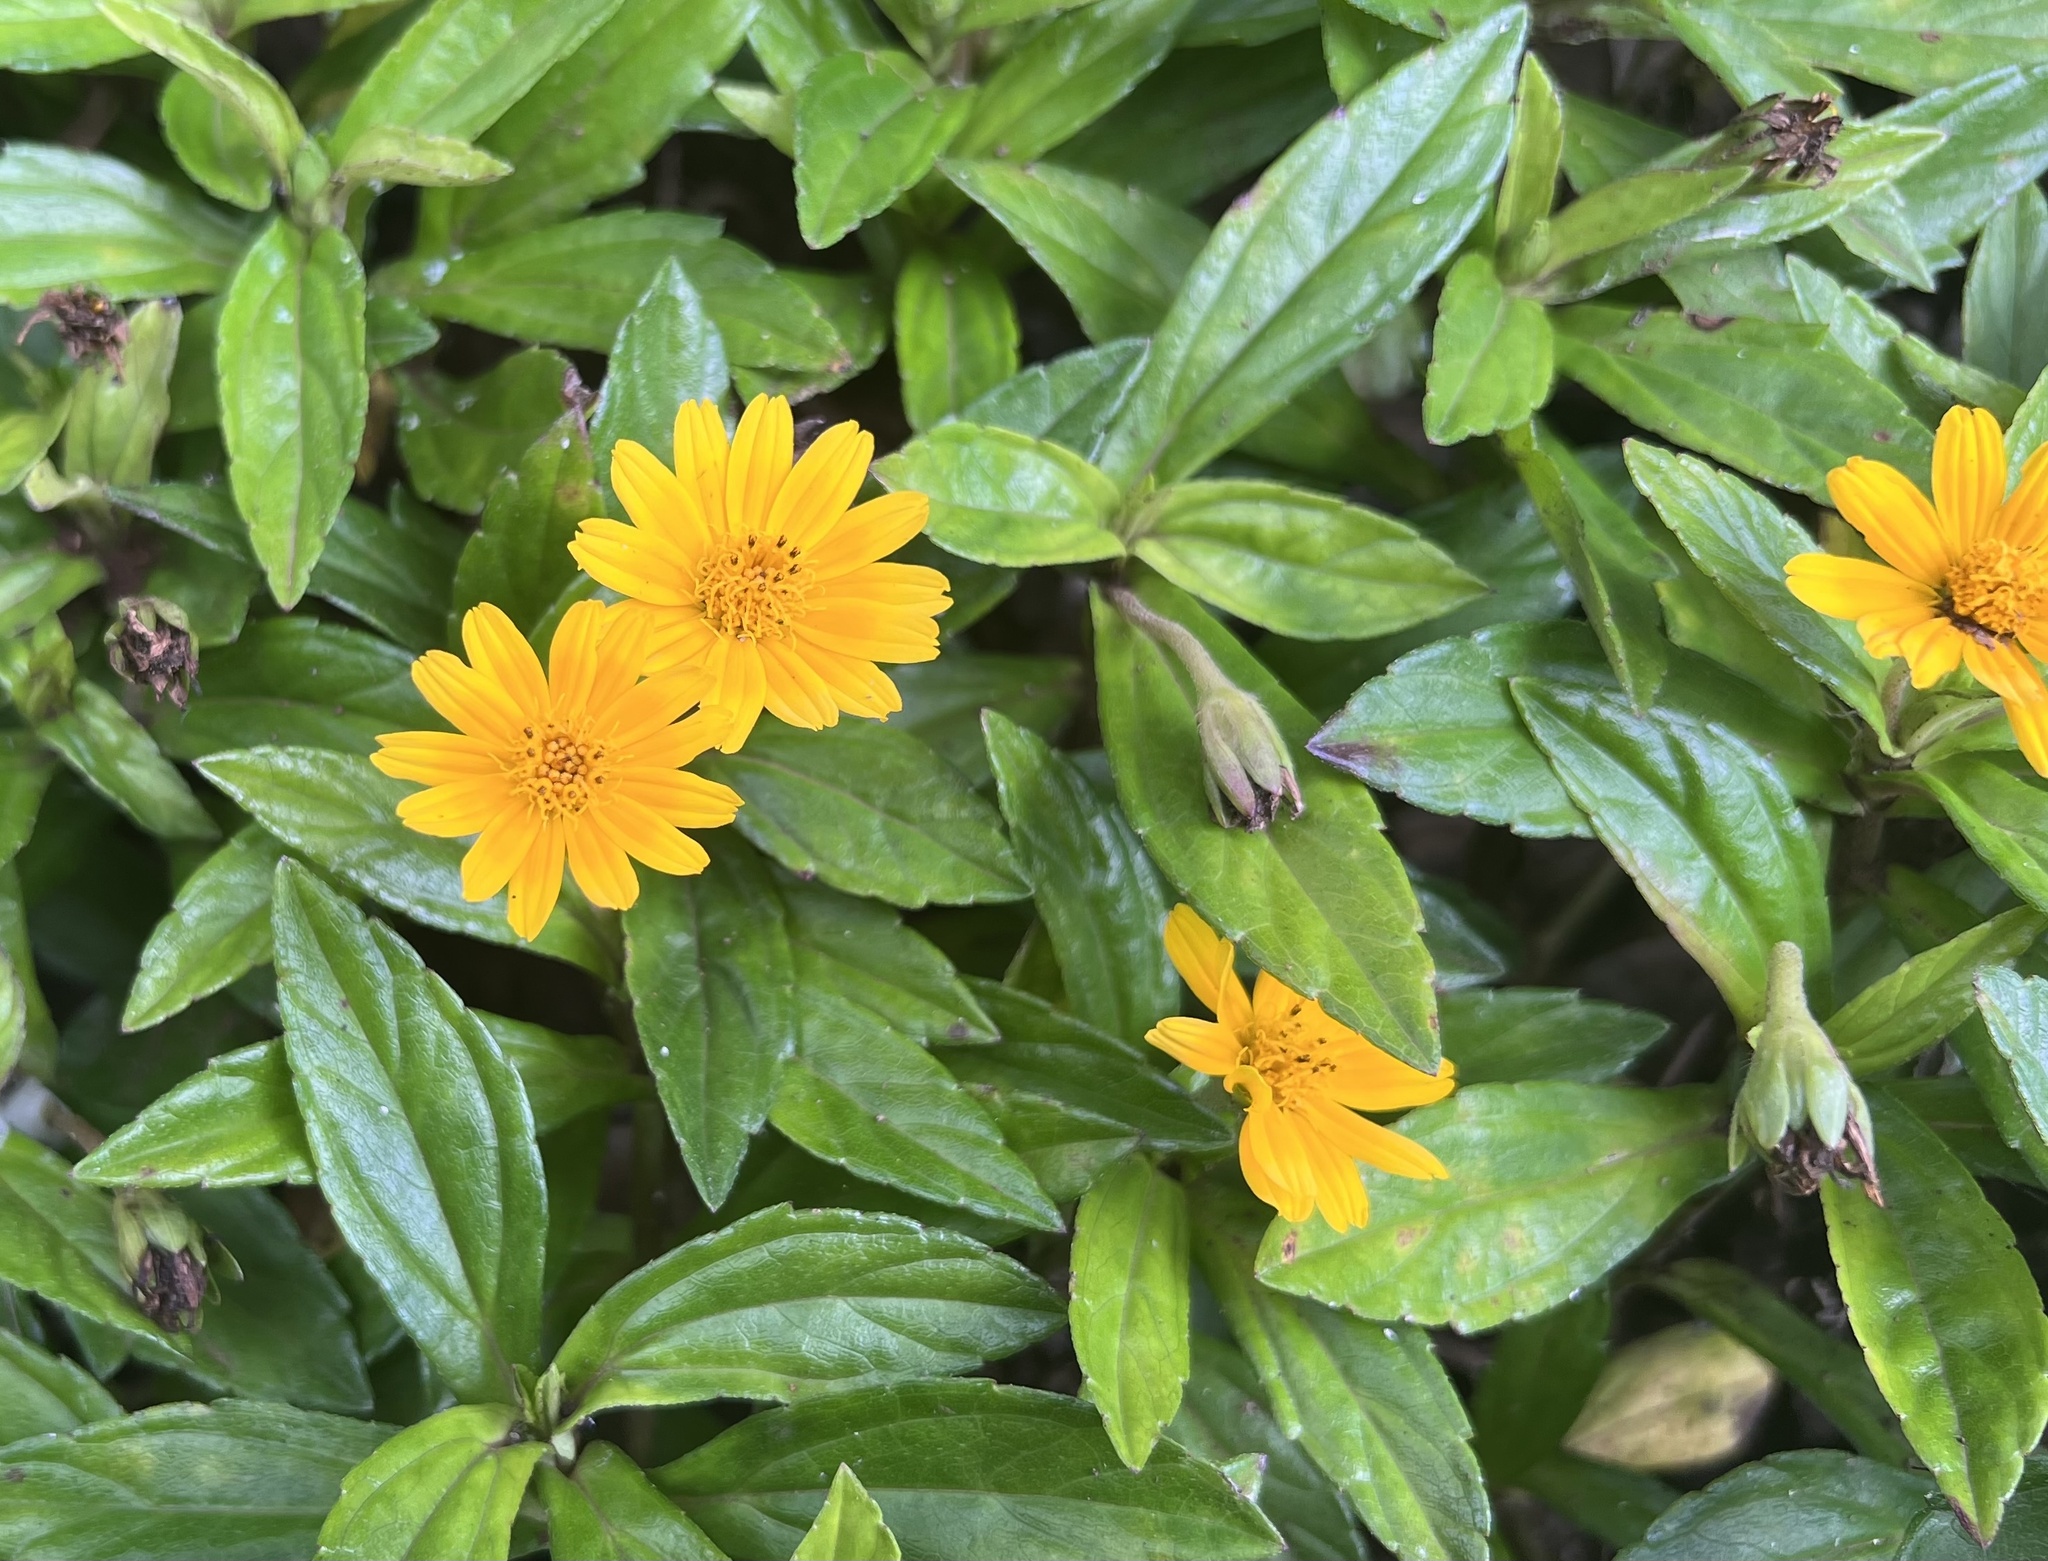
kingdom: Plantae
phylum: Tracheophyta
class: Magnoliopsida
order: Asterales
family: Asteraceae
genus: Sphagneticola
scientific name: Sphagneticola trilobata
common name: Bay biscayne creeping-oxeye
